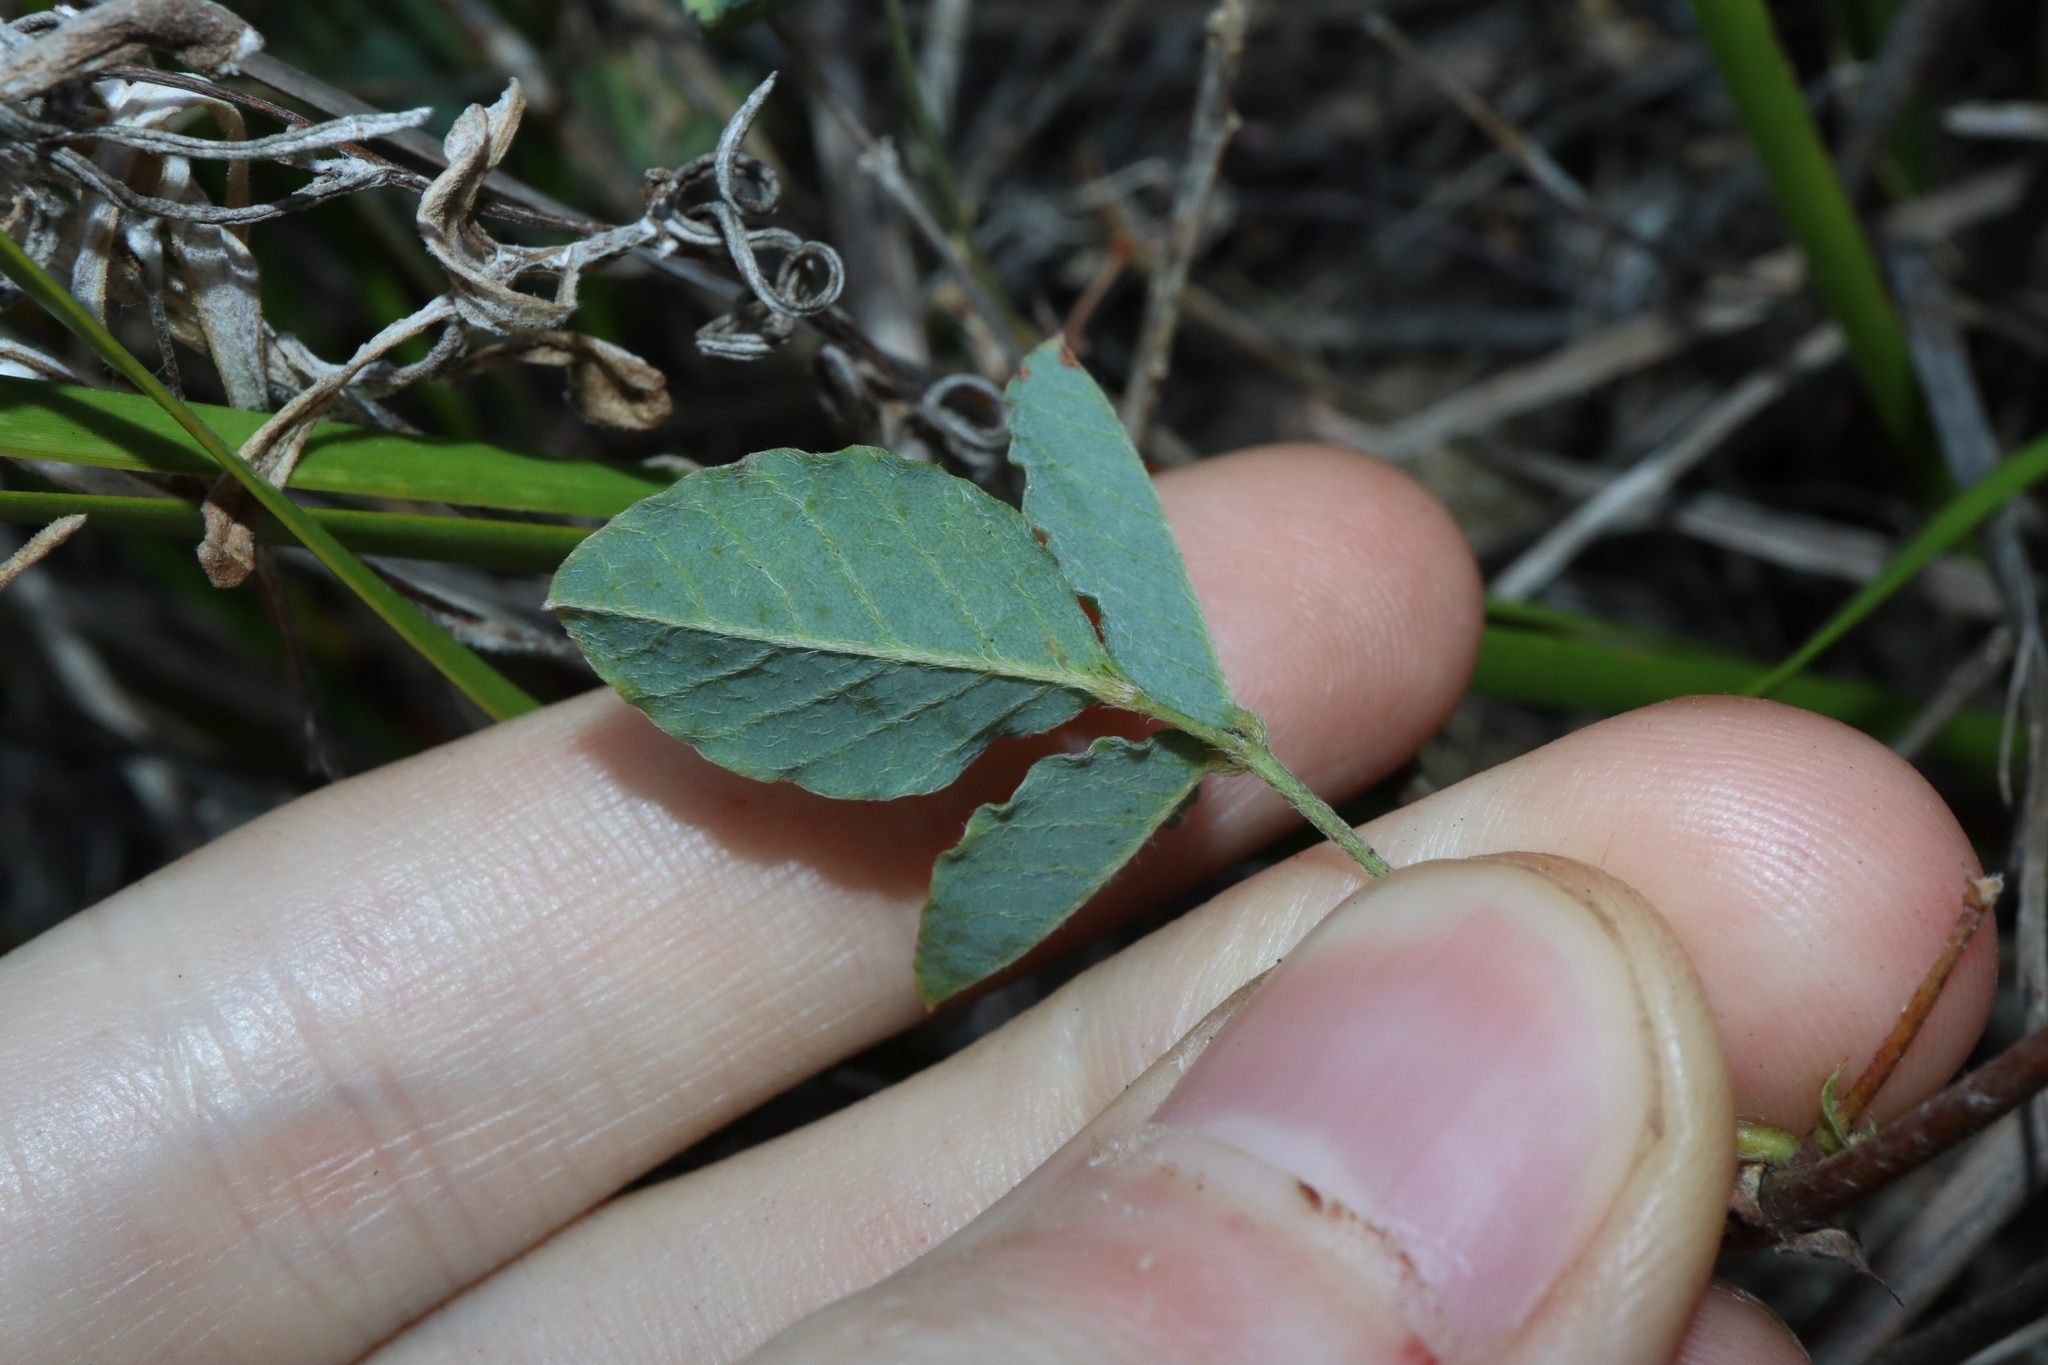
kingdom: Plantae
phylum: Tracheophyta
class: Magnoliopsida
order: Fabales
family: Fabaceae
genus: Kennedia
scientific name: Kennedia prostrata
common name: Running-postman
